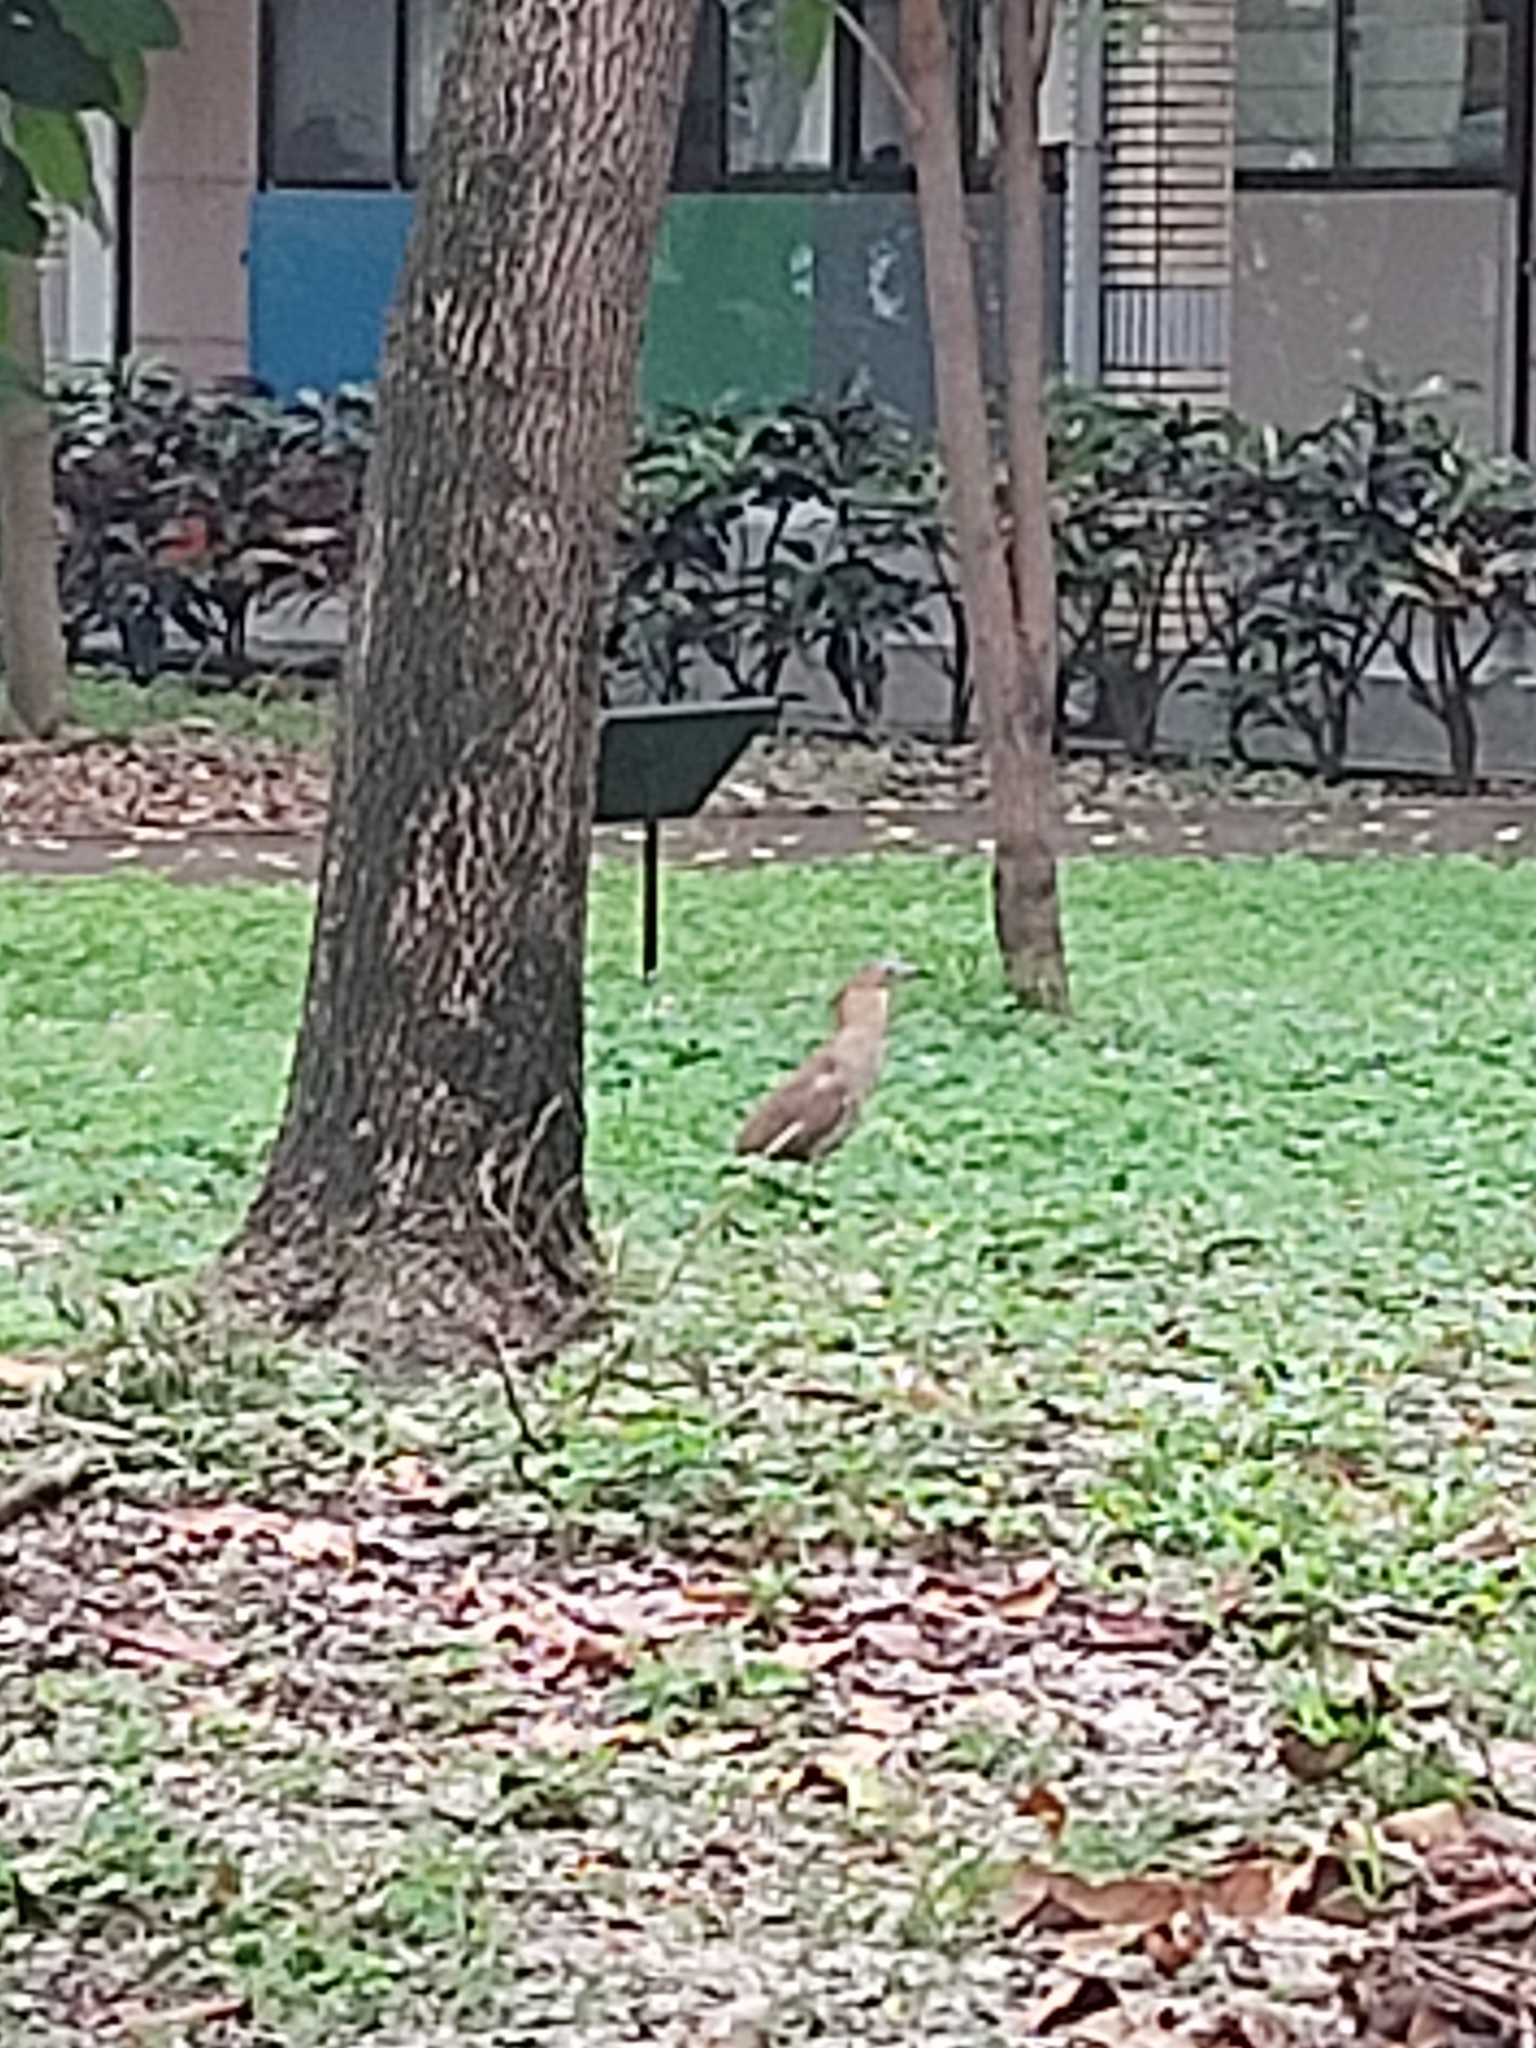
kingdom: Animalia
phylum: Chordata
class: Aves
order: Pelecaniformes
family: Ardeidae
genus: Gorsachius
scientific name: Gorsachius melanolophus
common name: Malayan night heron
